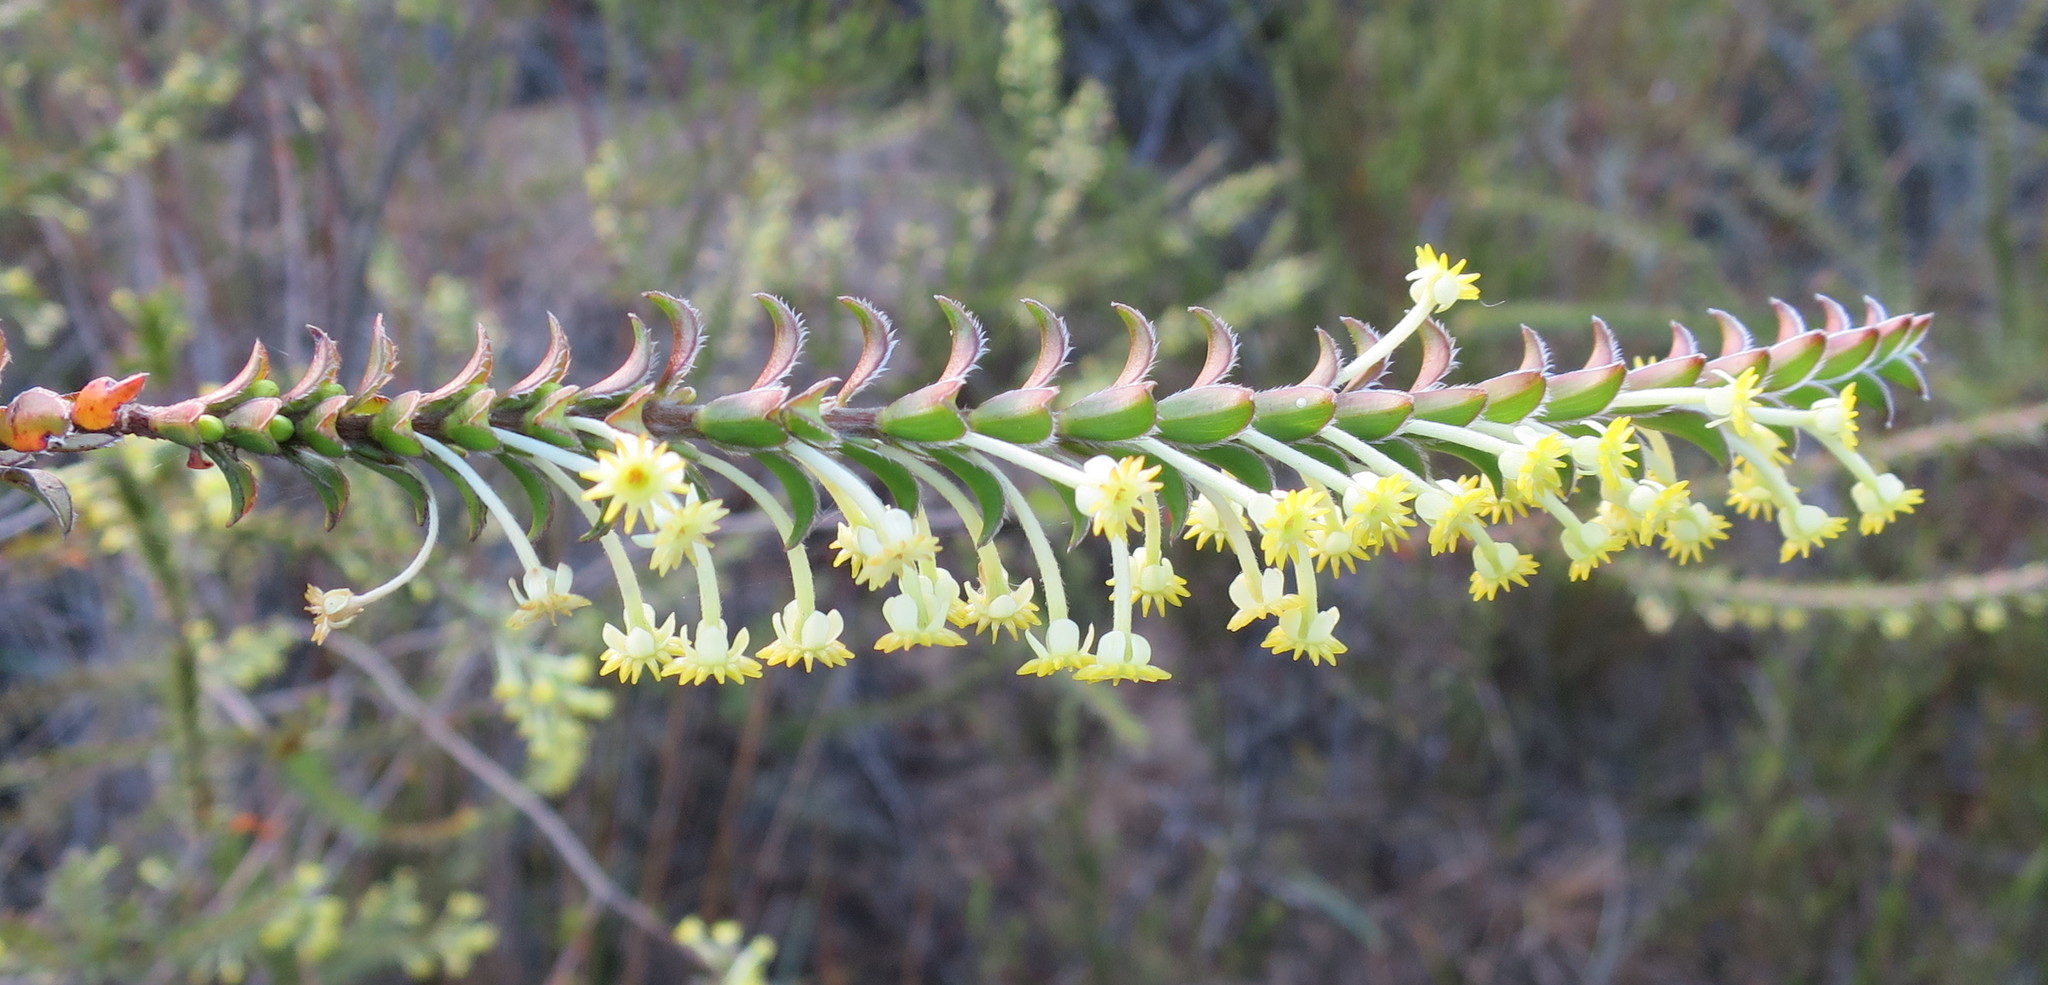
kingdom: Plantae
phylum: Tracheophyta
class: Magnoliopsida
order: Malvales
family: Thymelaeaceae
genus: Struthiola
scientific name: Struthiola argentea
